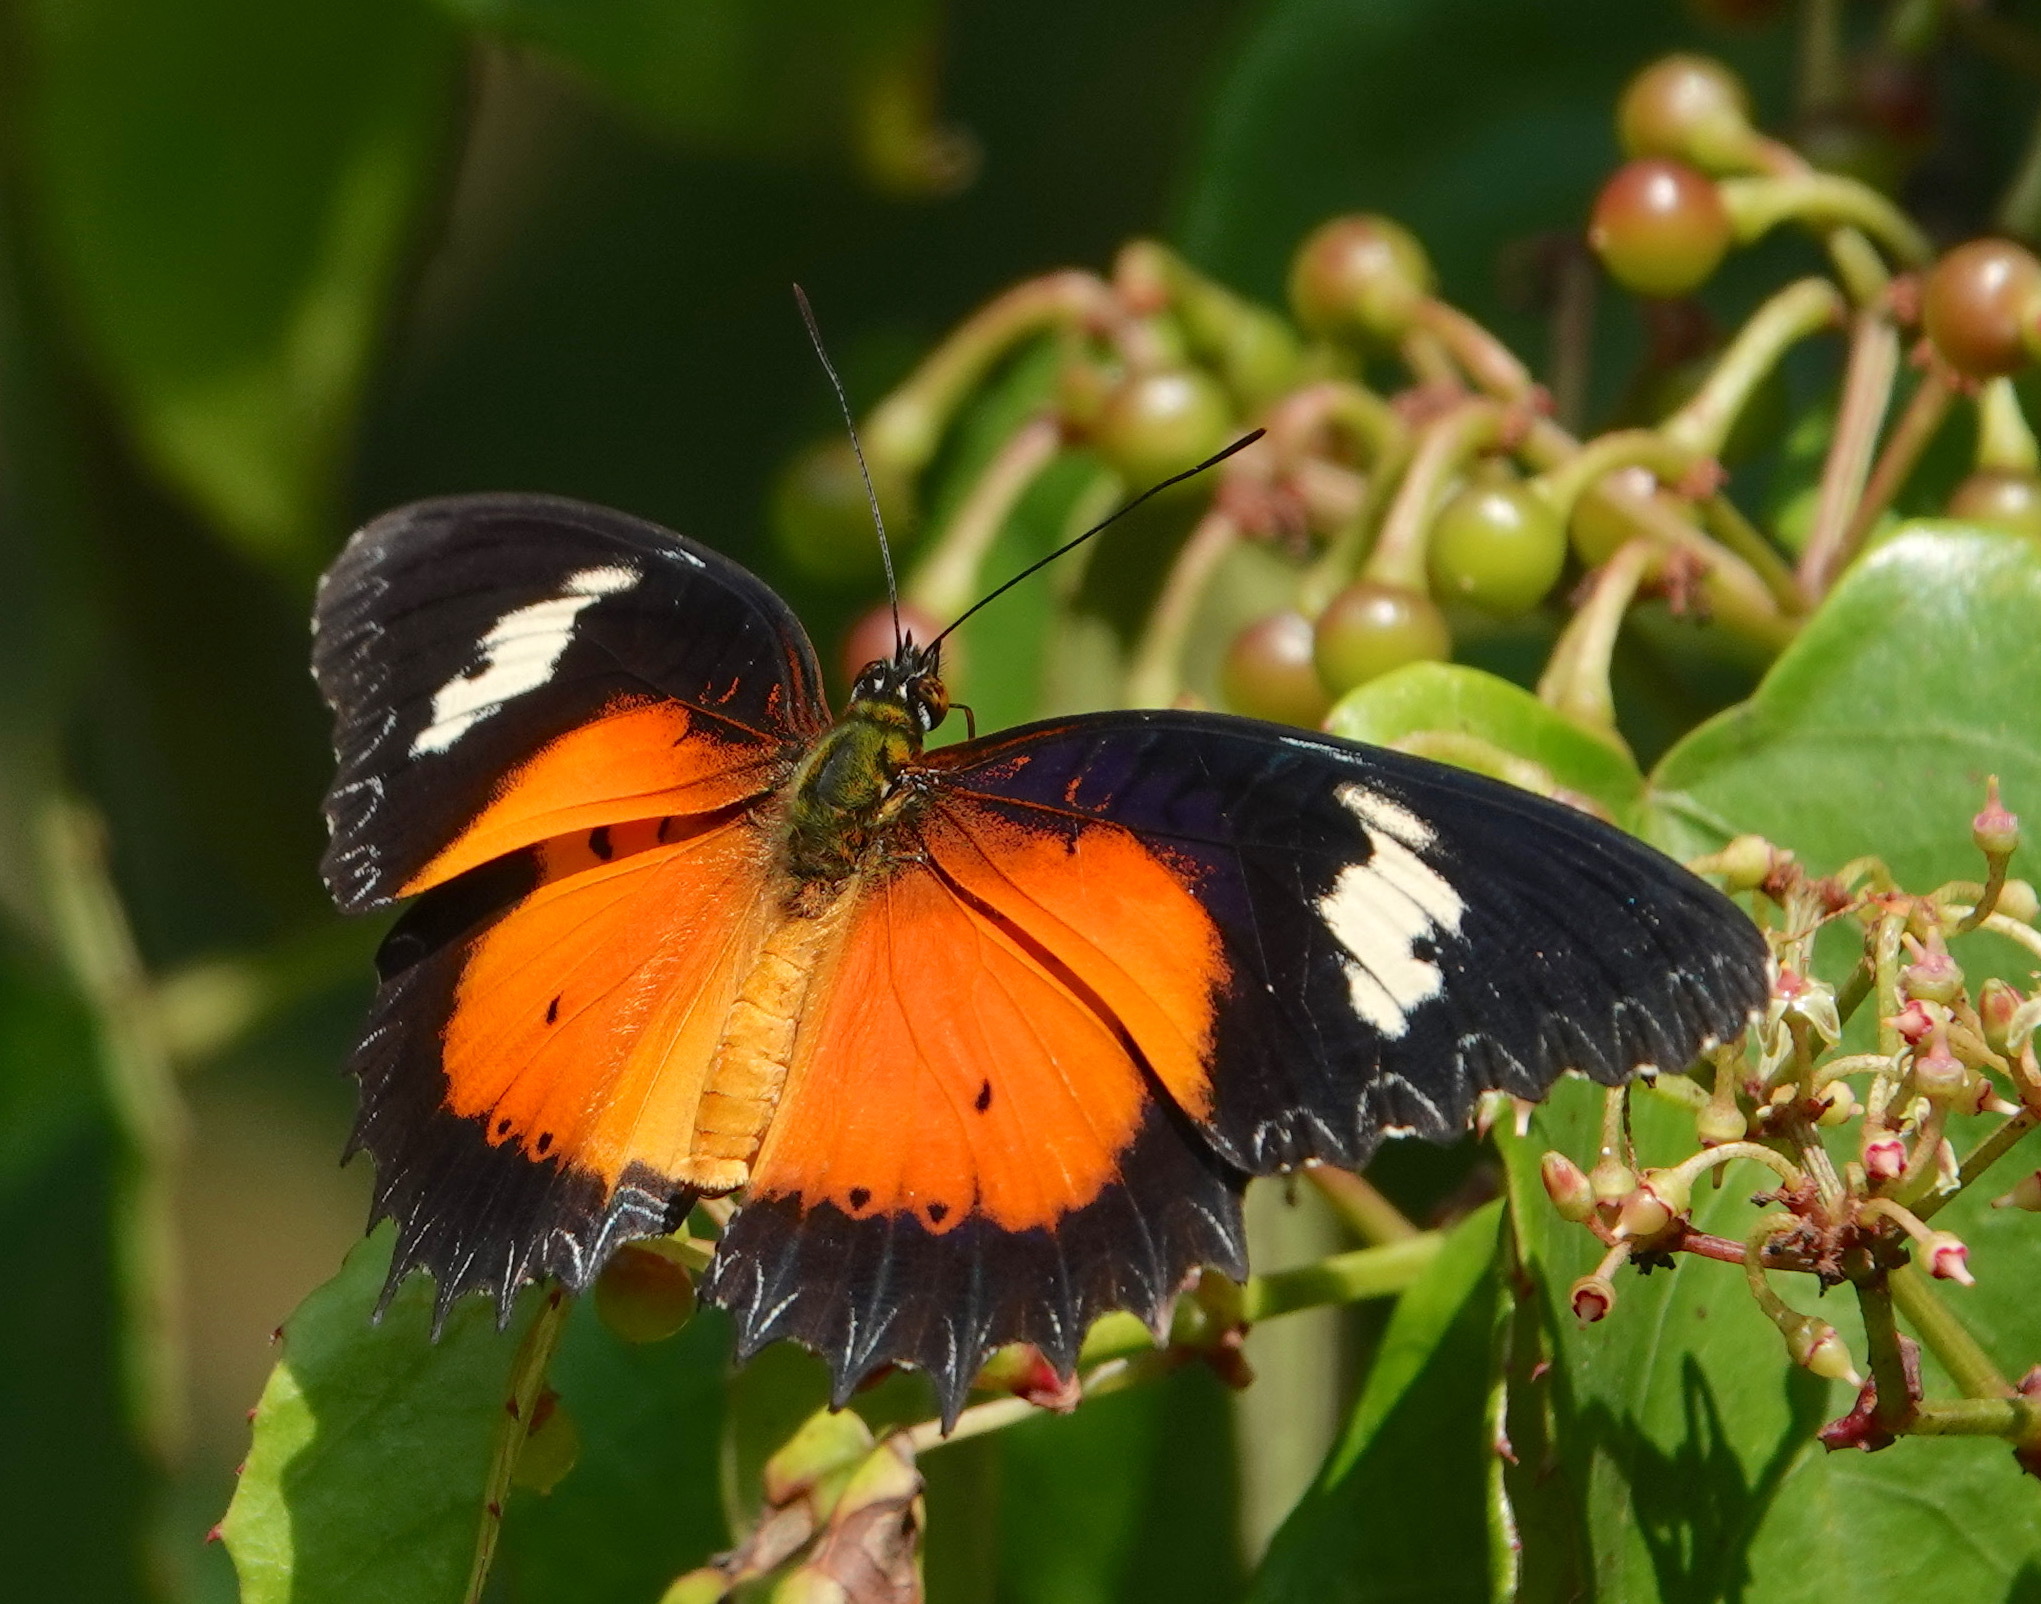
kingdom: Animalia
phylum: Arthropoda
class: Insecta
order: Lepidoptera
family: Nymphalidae
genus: Cethosia
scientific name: Cethosia hypsea
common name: Malayan lacewing butterfly
